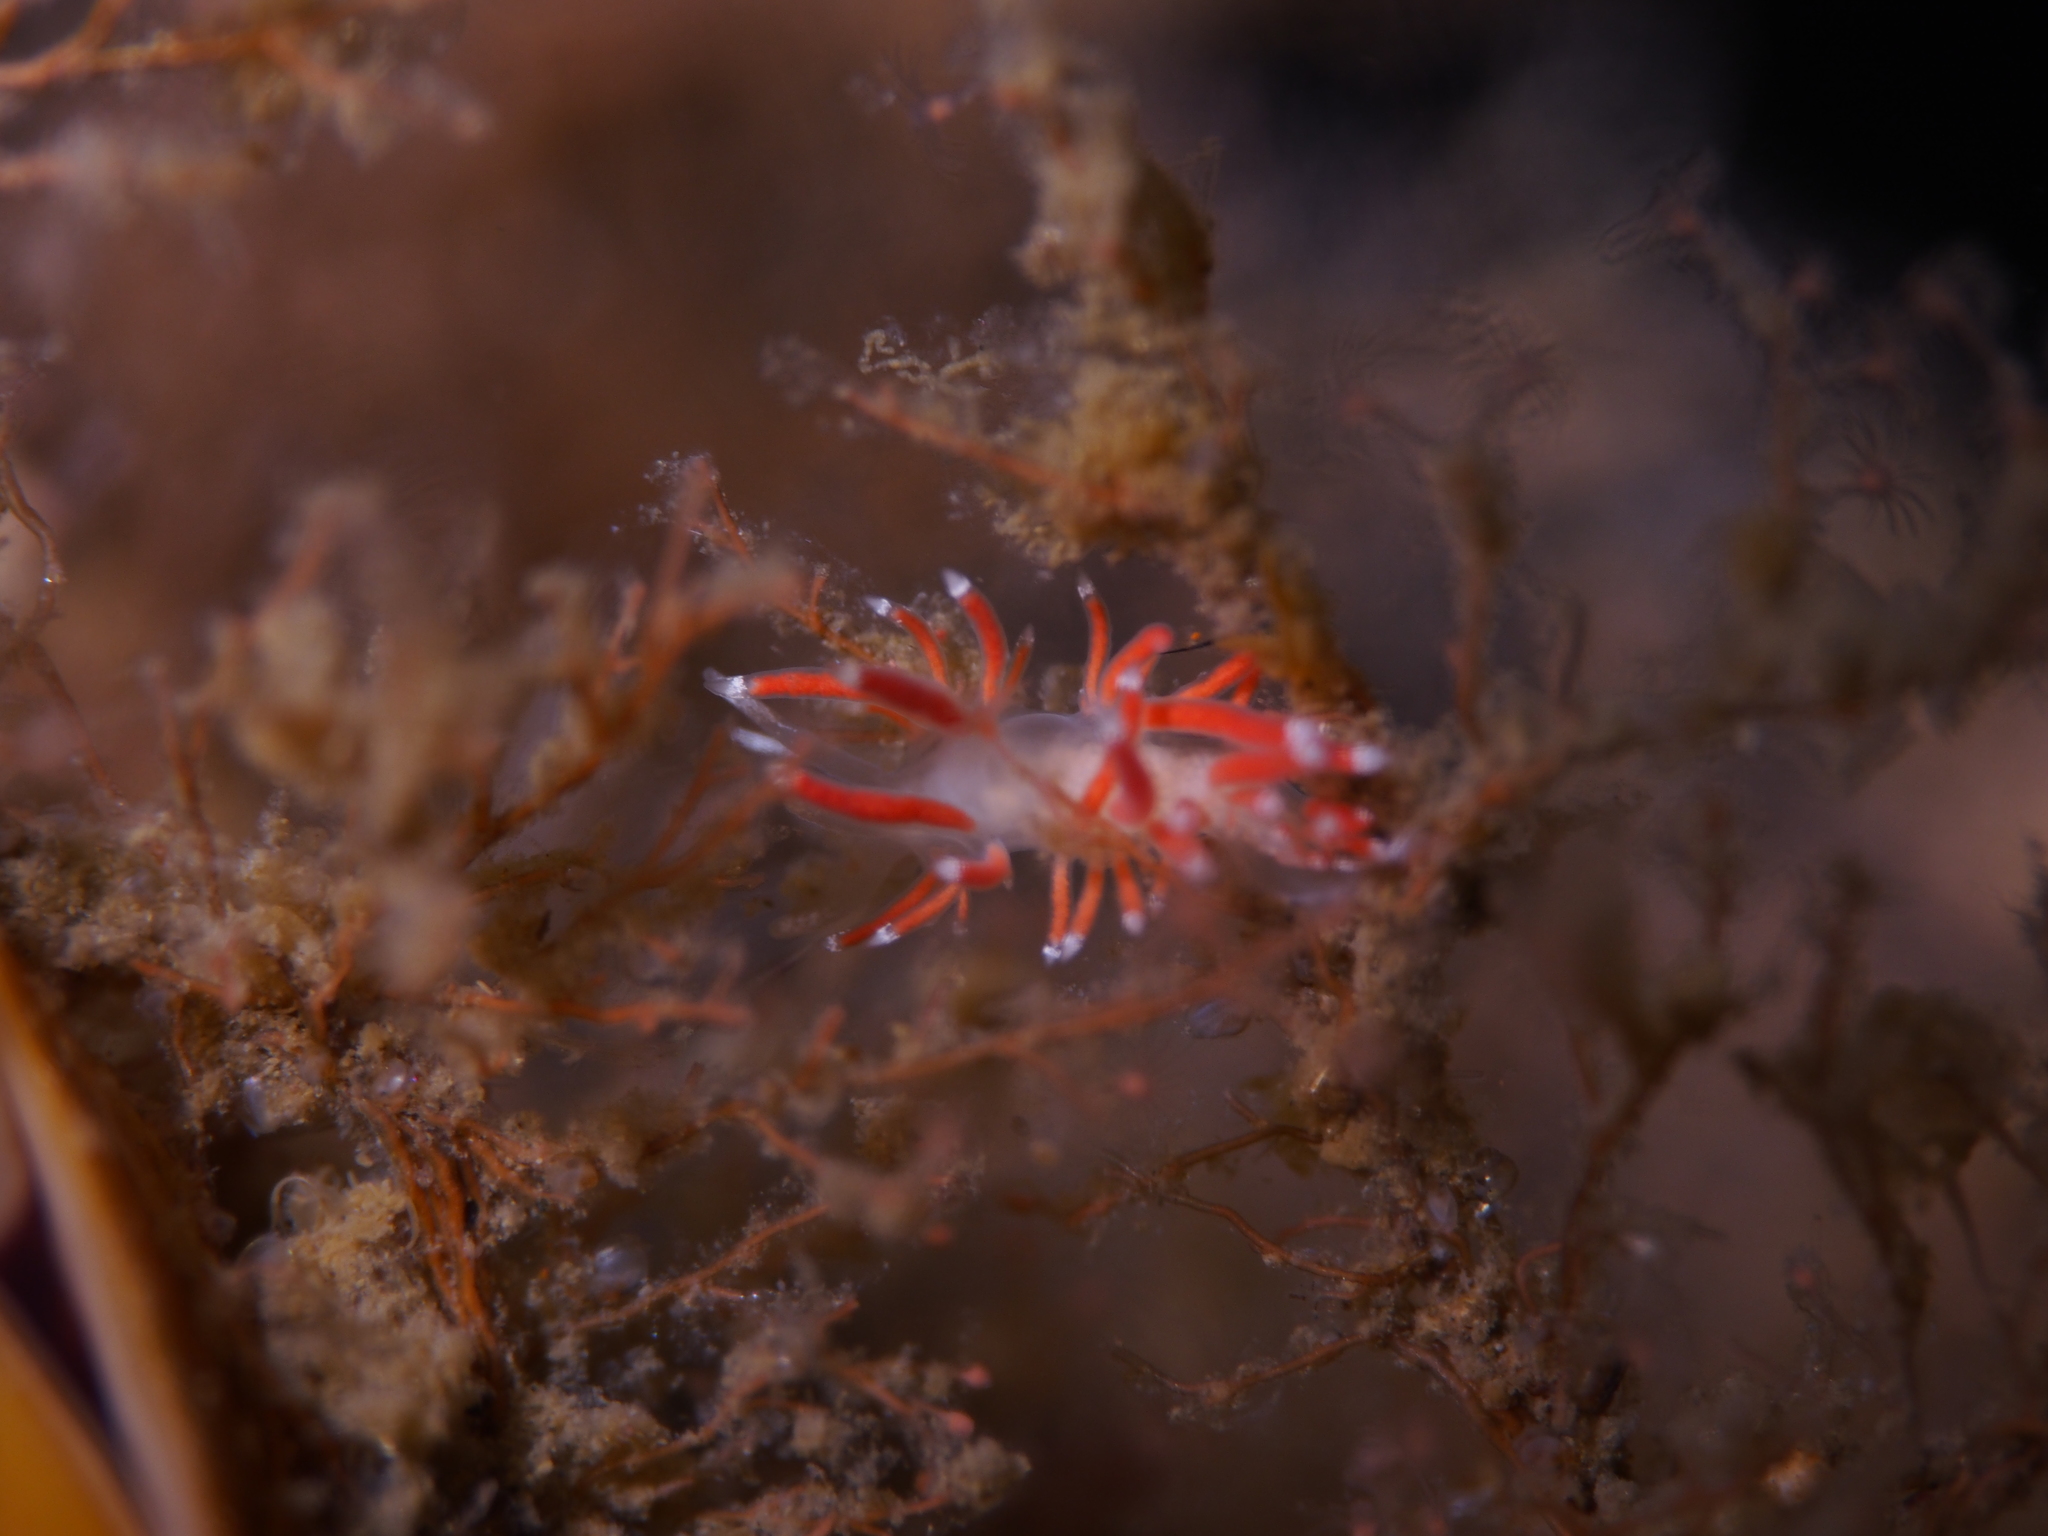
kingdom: Animalia
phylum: Mollusca
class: Gastropoda
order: Nudibranchia
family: Coryphellidae
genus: Coryphella
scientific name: Coryphella gracilis
